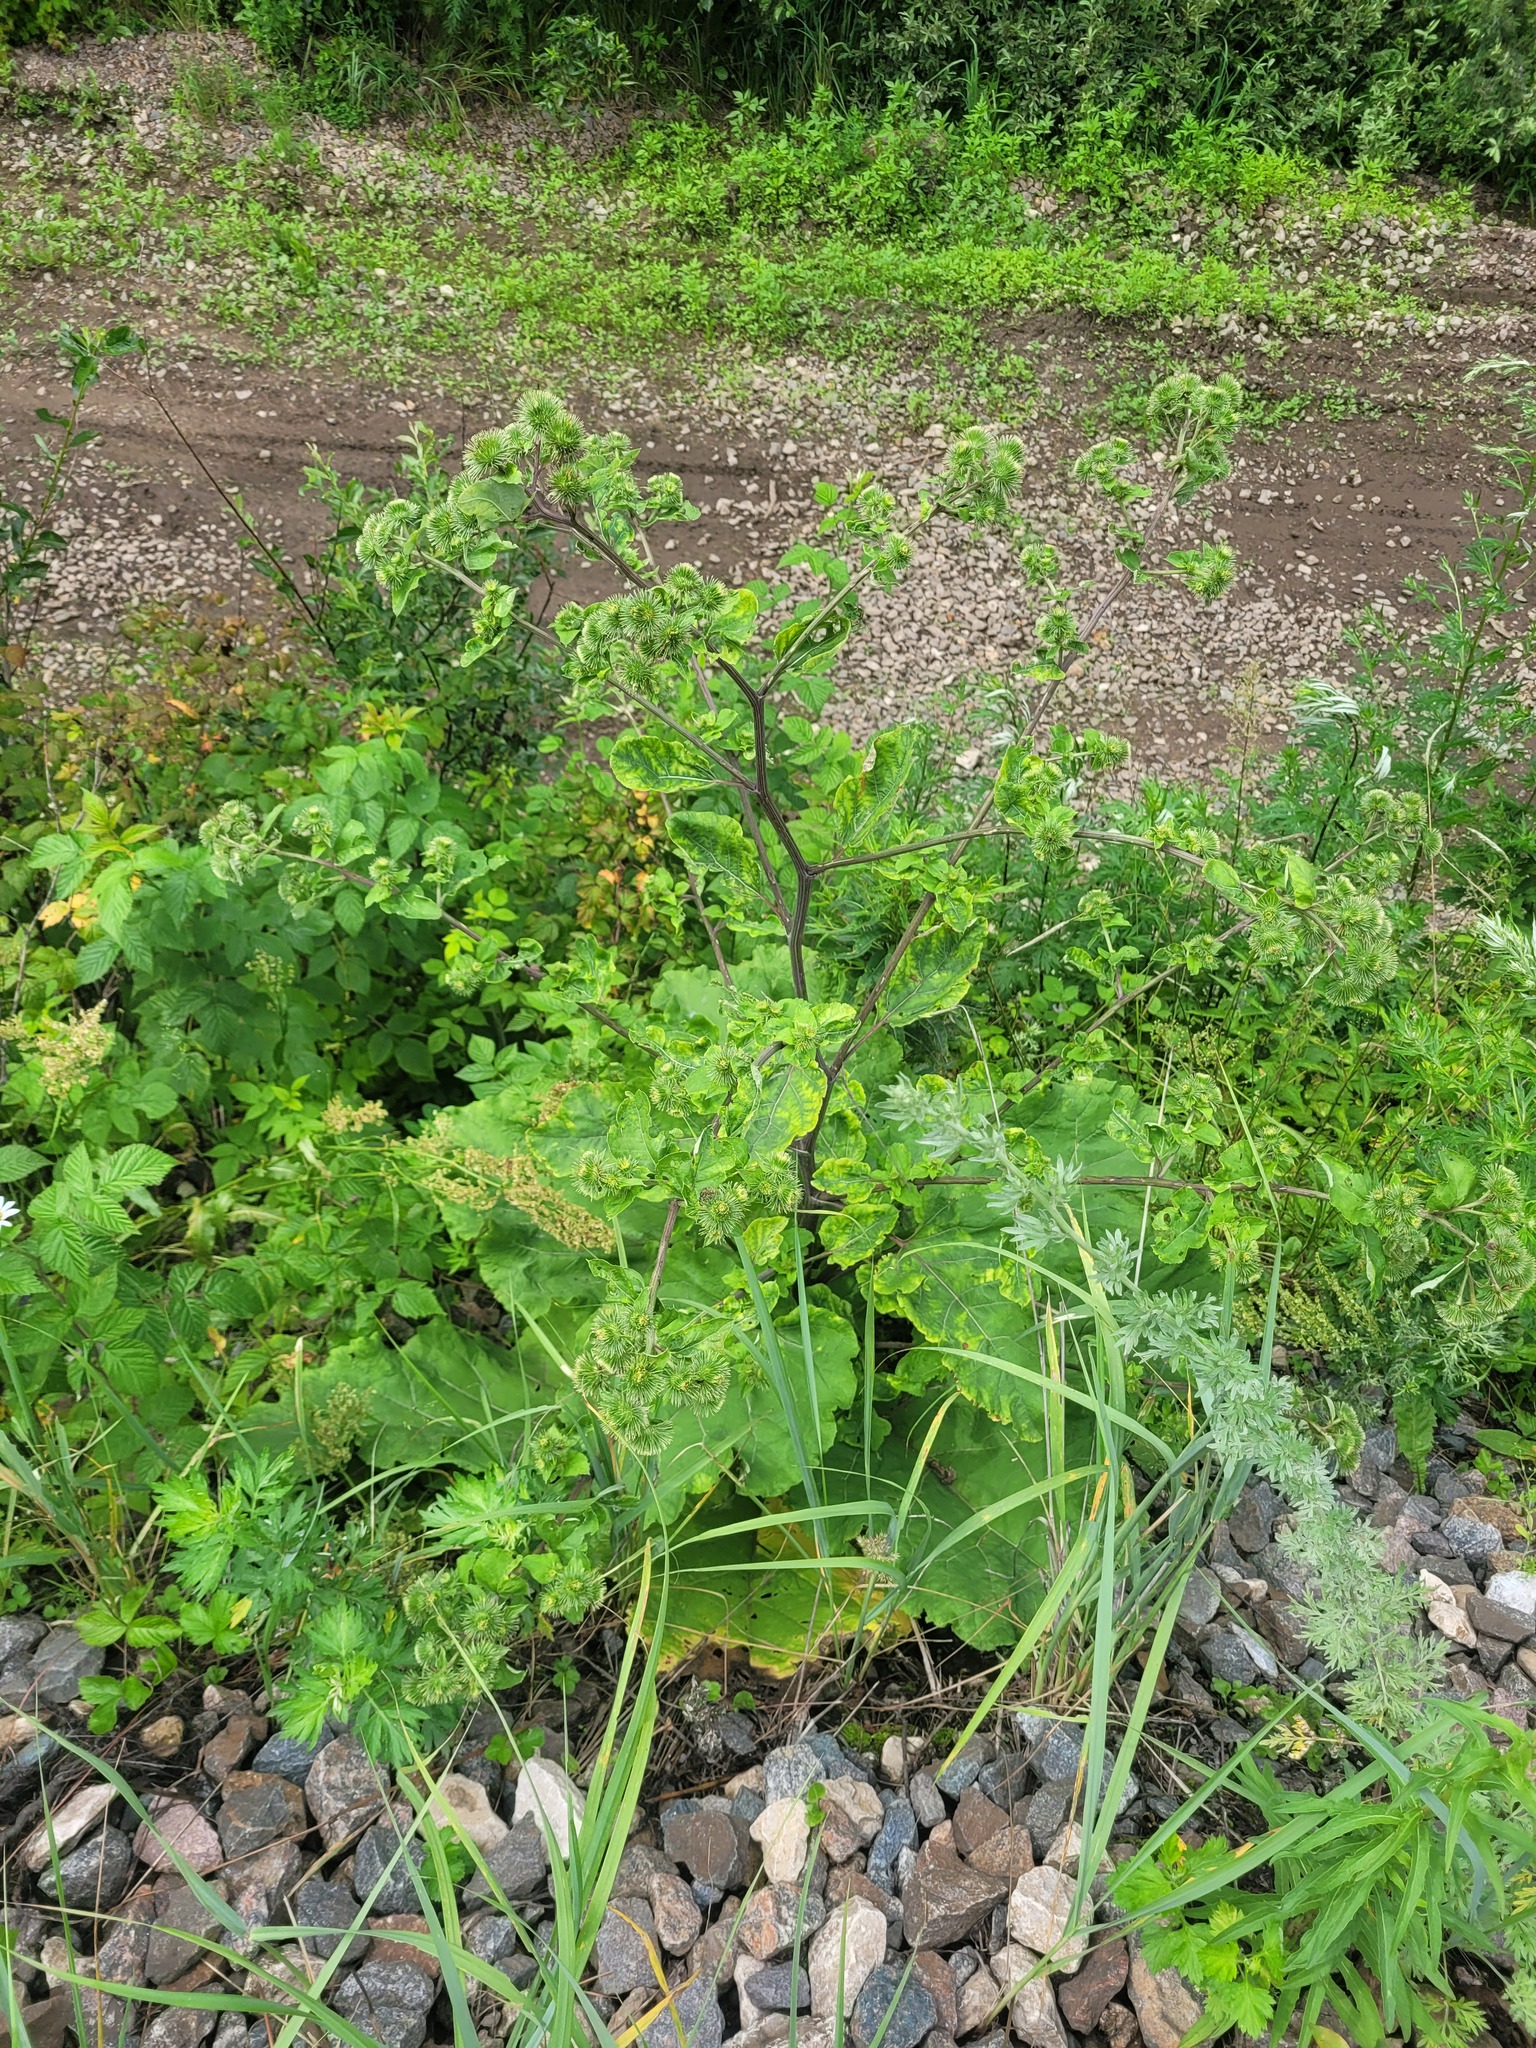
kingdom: Plantae
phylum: Tracheophyta
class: Magnoliopsida
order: Asterales
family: Asteraceae
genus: Arctium
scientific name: Arctium lappa
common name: Greater burdock
